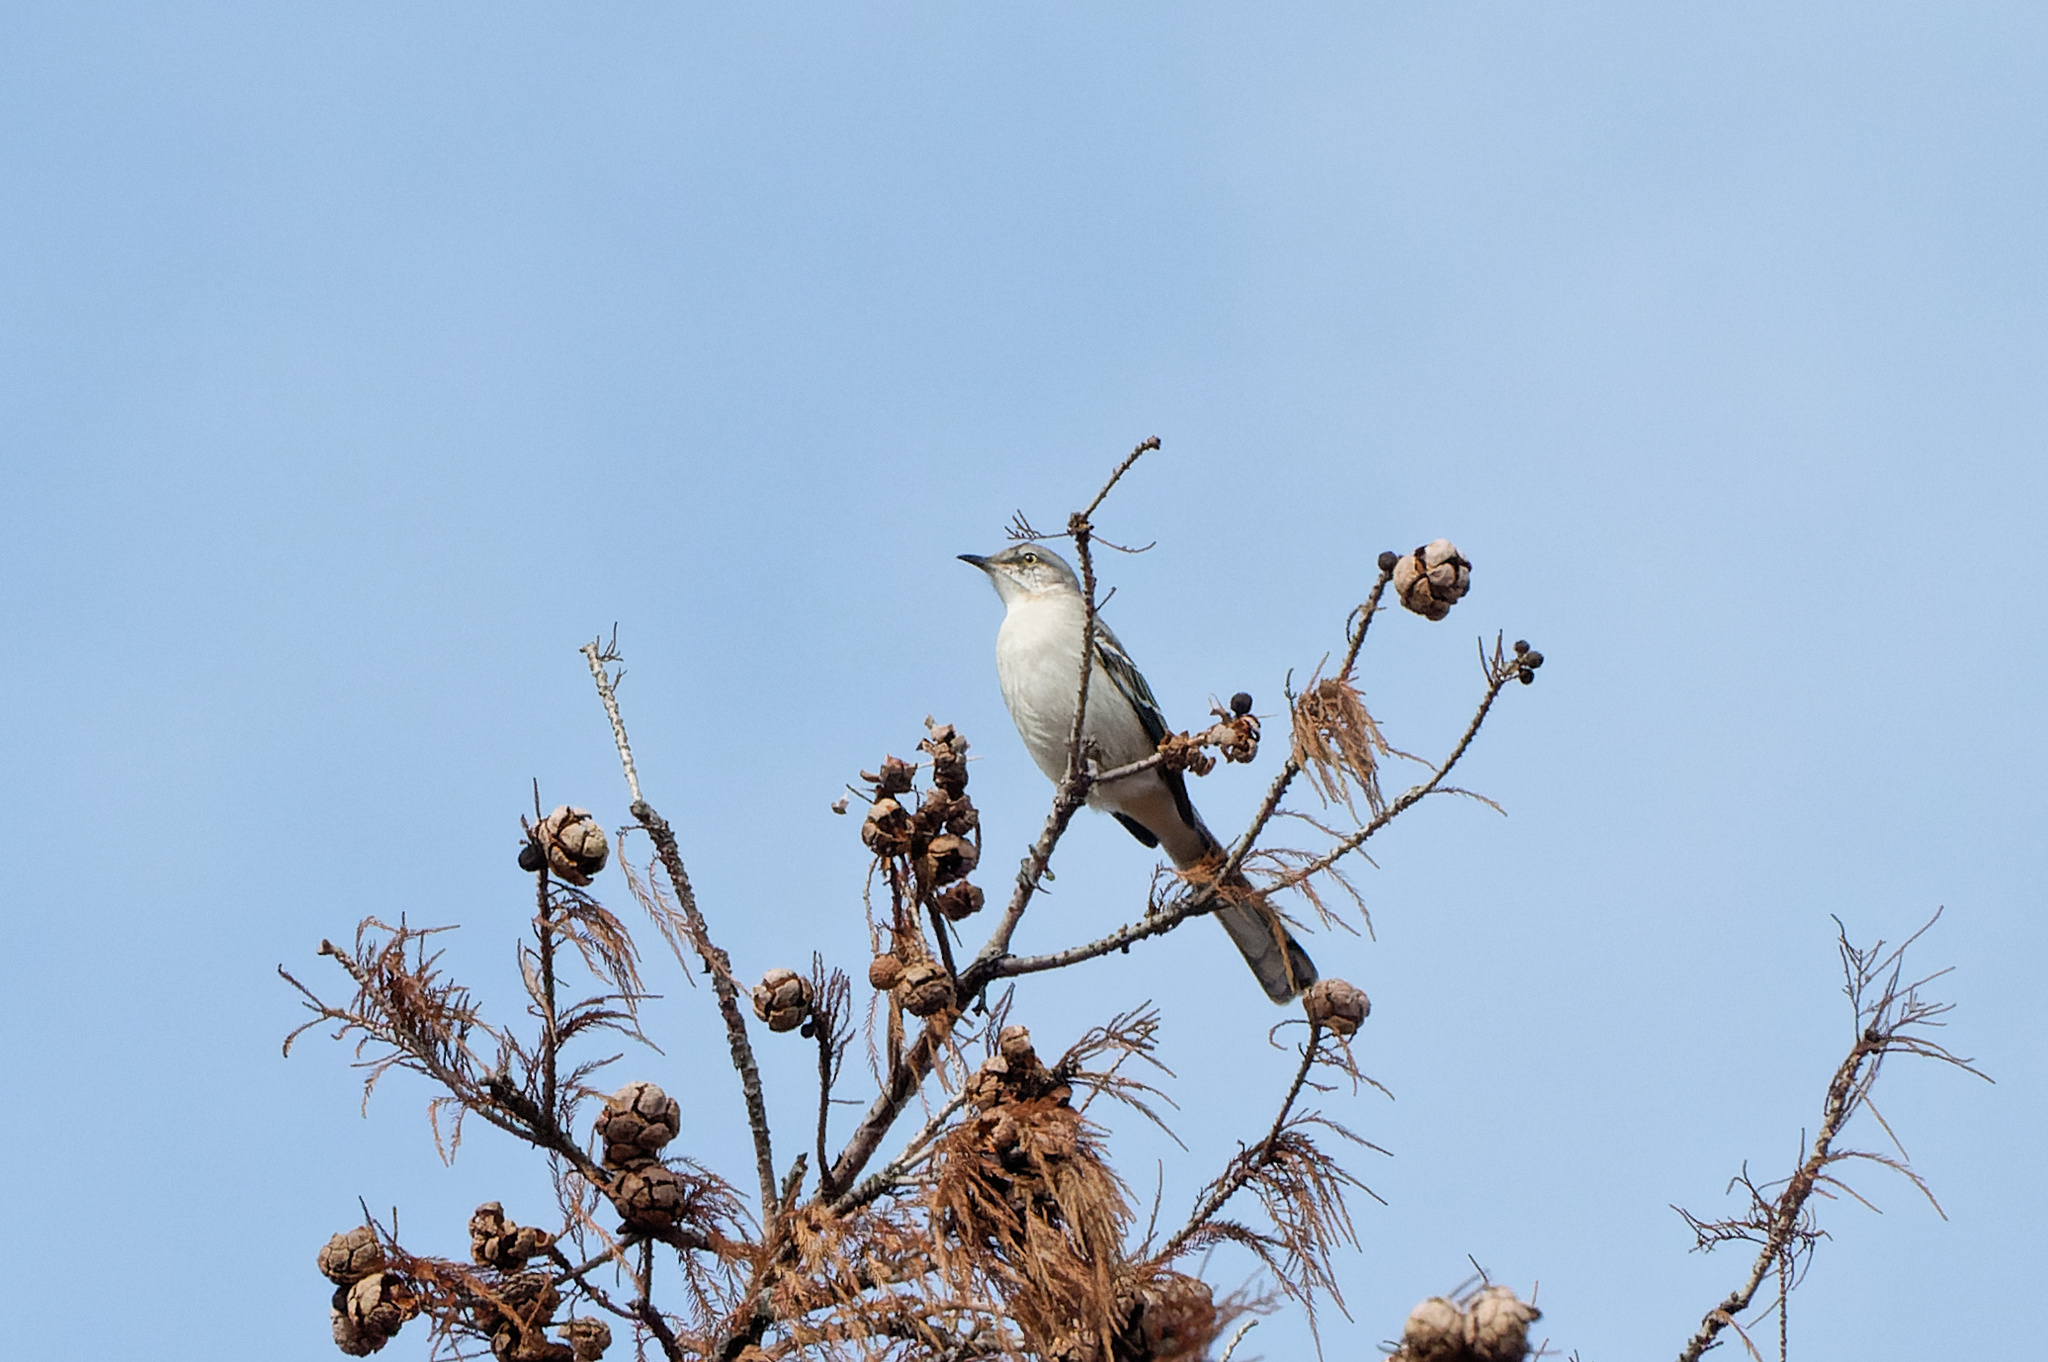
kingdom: Animalia
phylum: Chordata
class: Aves
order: Passeriformes
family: Mimidae
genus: Mimus
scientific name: Mimus polyglottos
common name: Northern mockingbird
